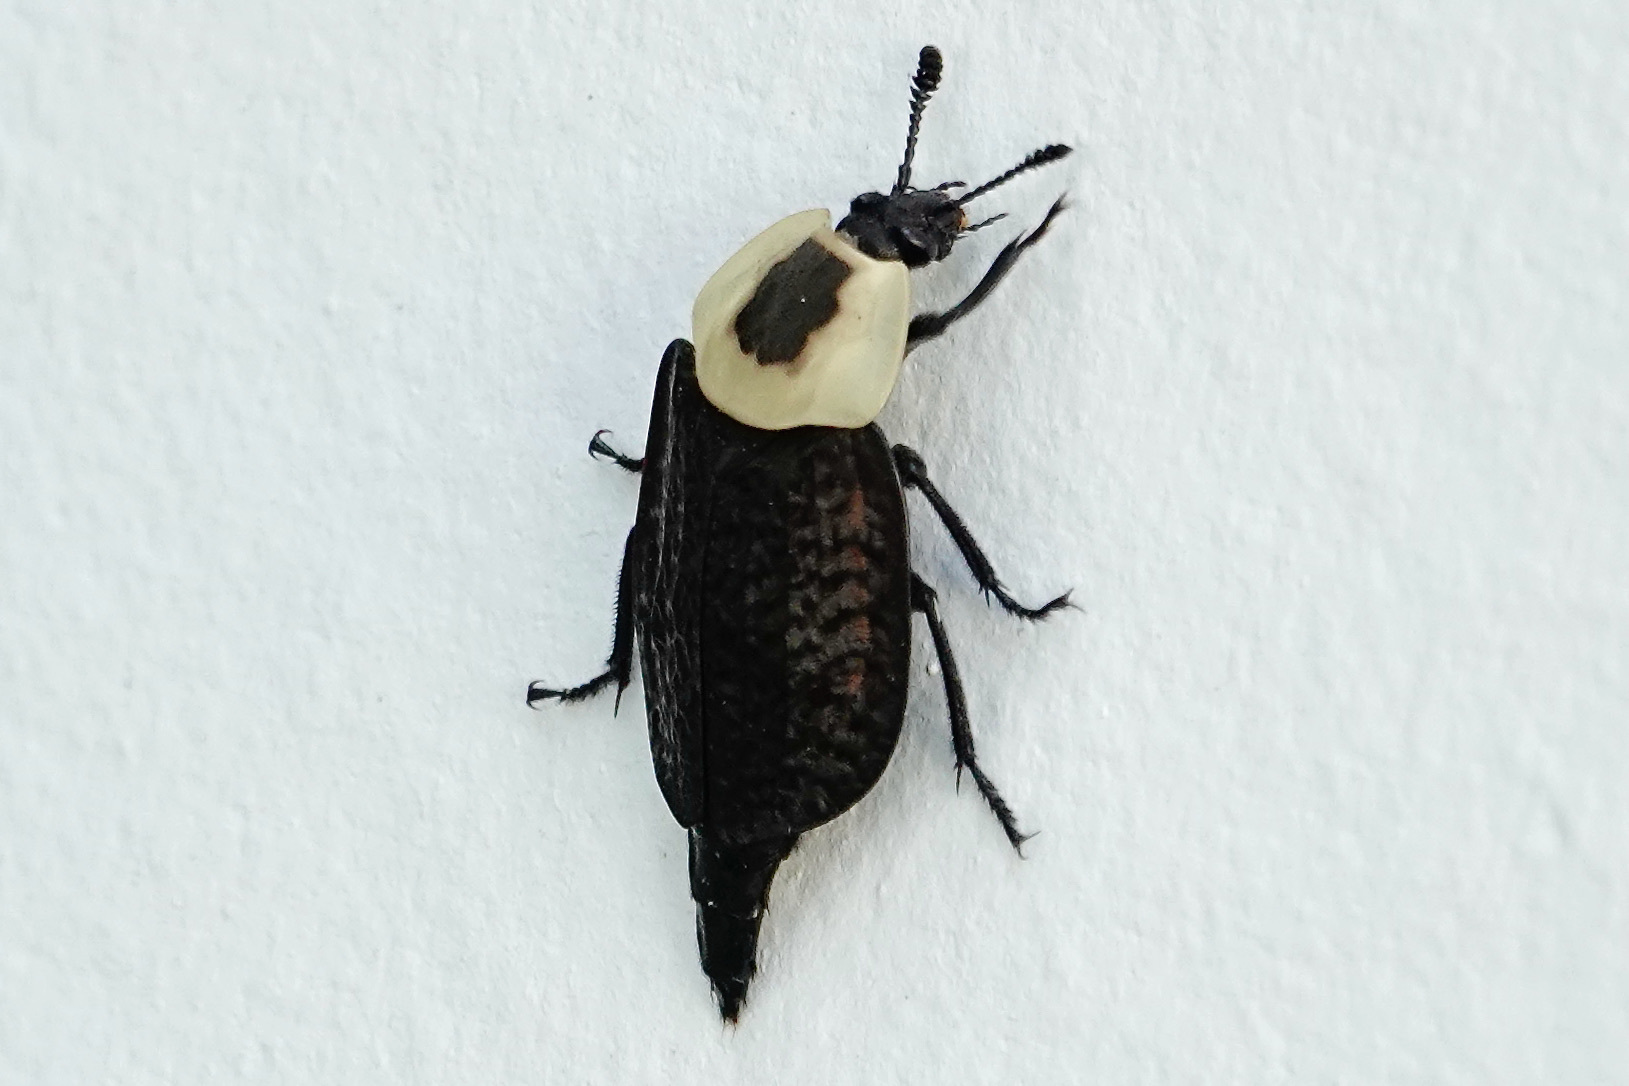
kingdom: Animalia
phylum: Arthropoda
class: Insecta
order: Coleoptera
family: Staphylinidae
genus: Necrophila
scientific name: Necrophila americana
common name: American carrion beetle
